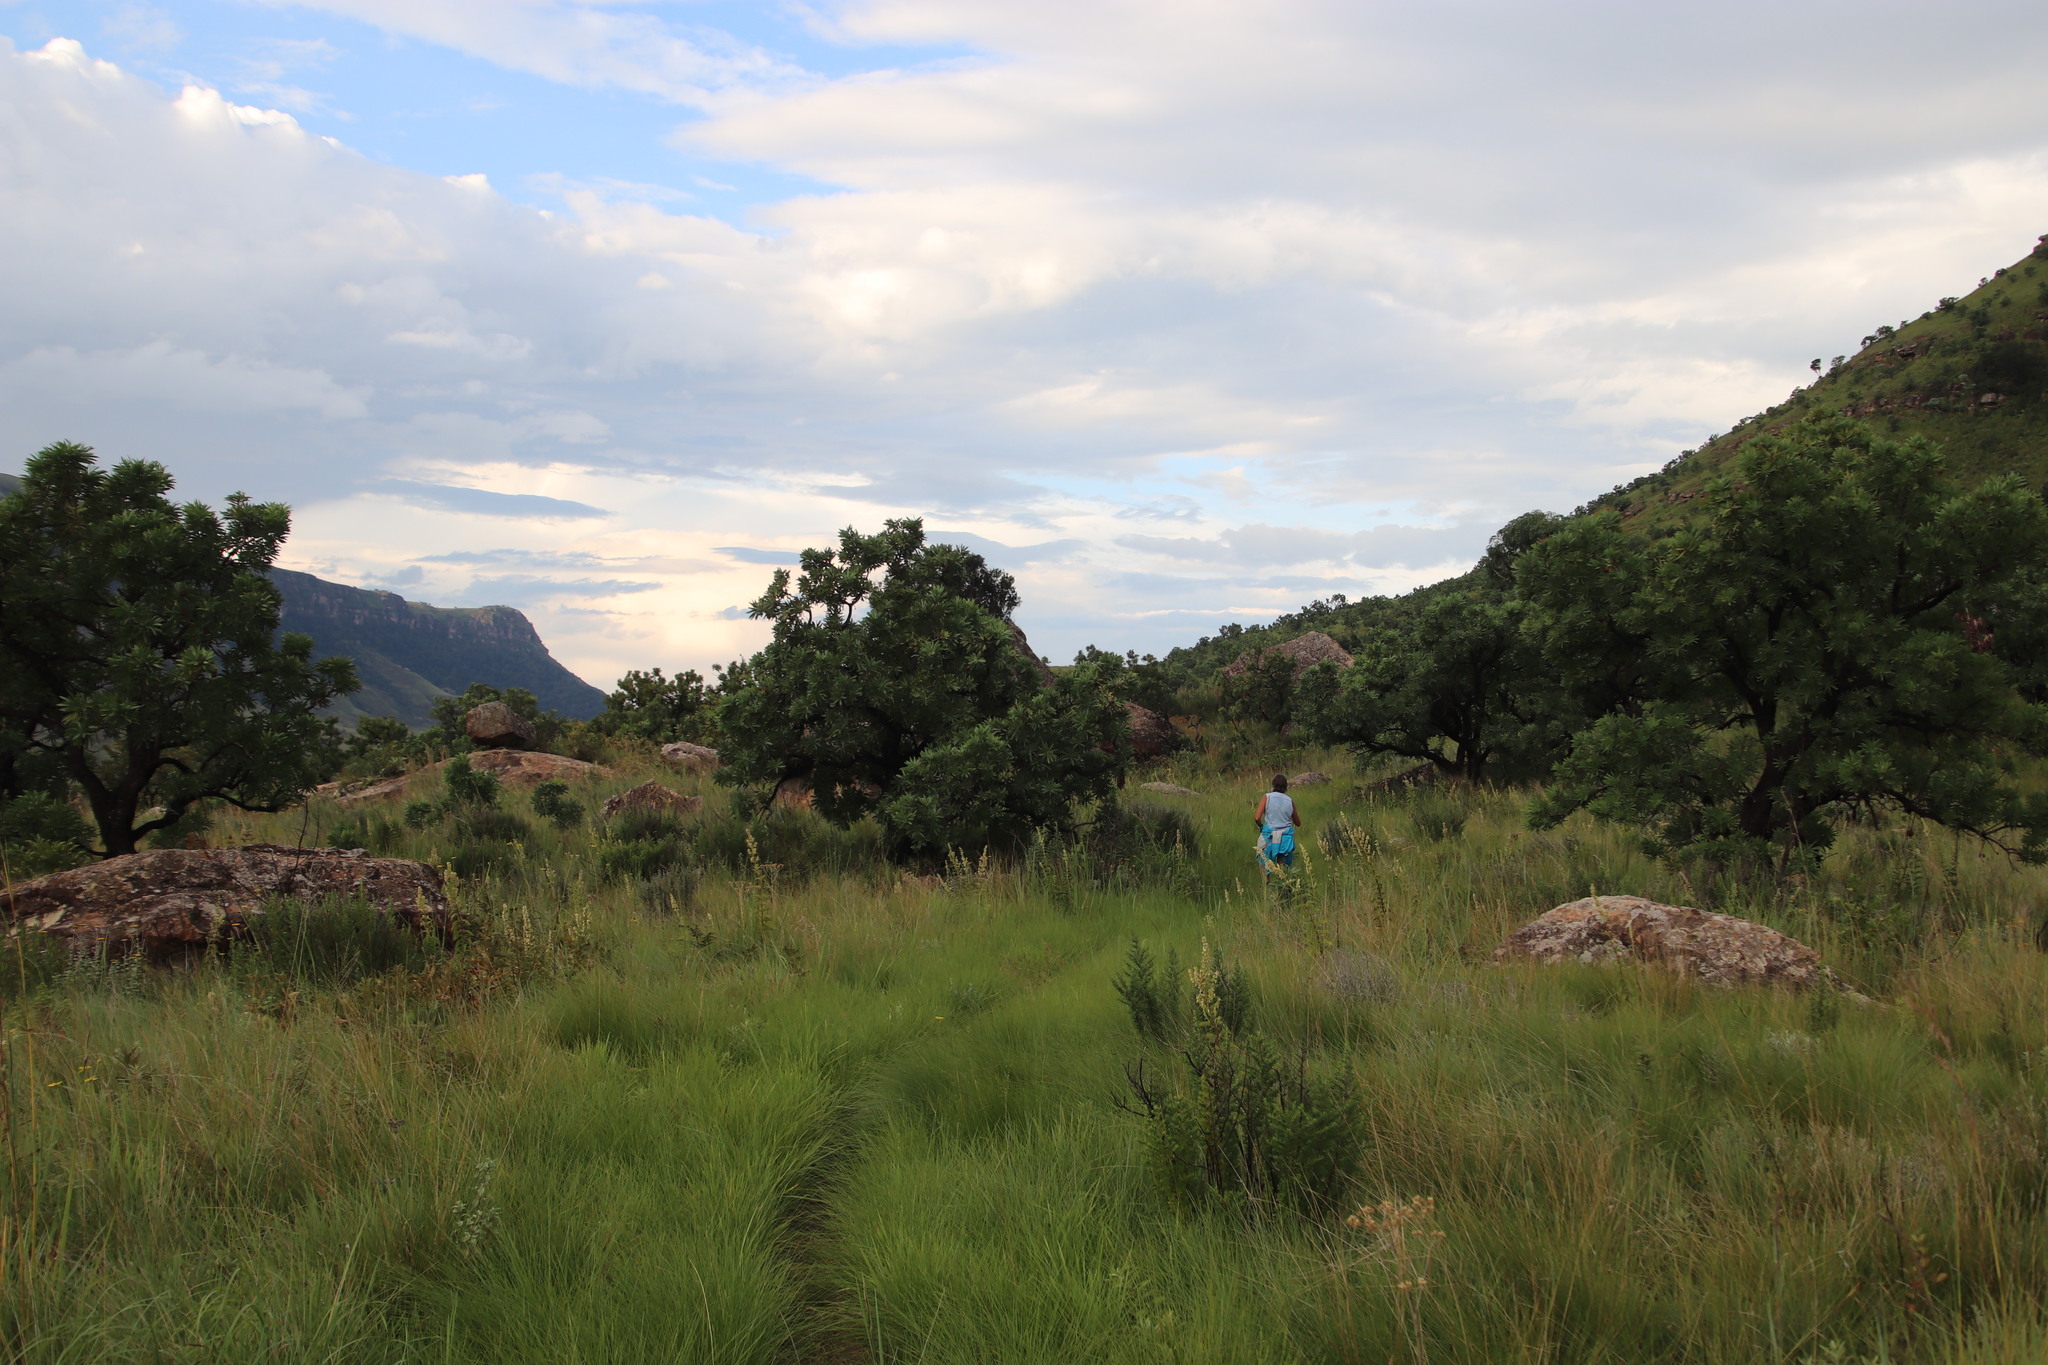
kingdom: Plantae
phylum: Tracheophyta
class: Magnoliopsida
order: Lamiales
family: Lamiaceae
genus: Coleus
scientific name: Coleus calycinus
